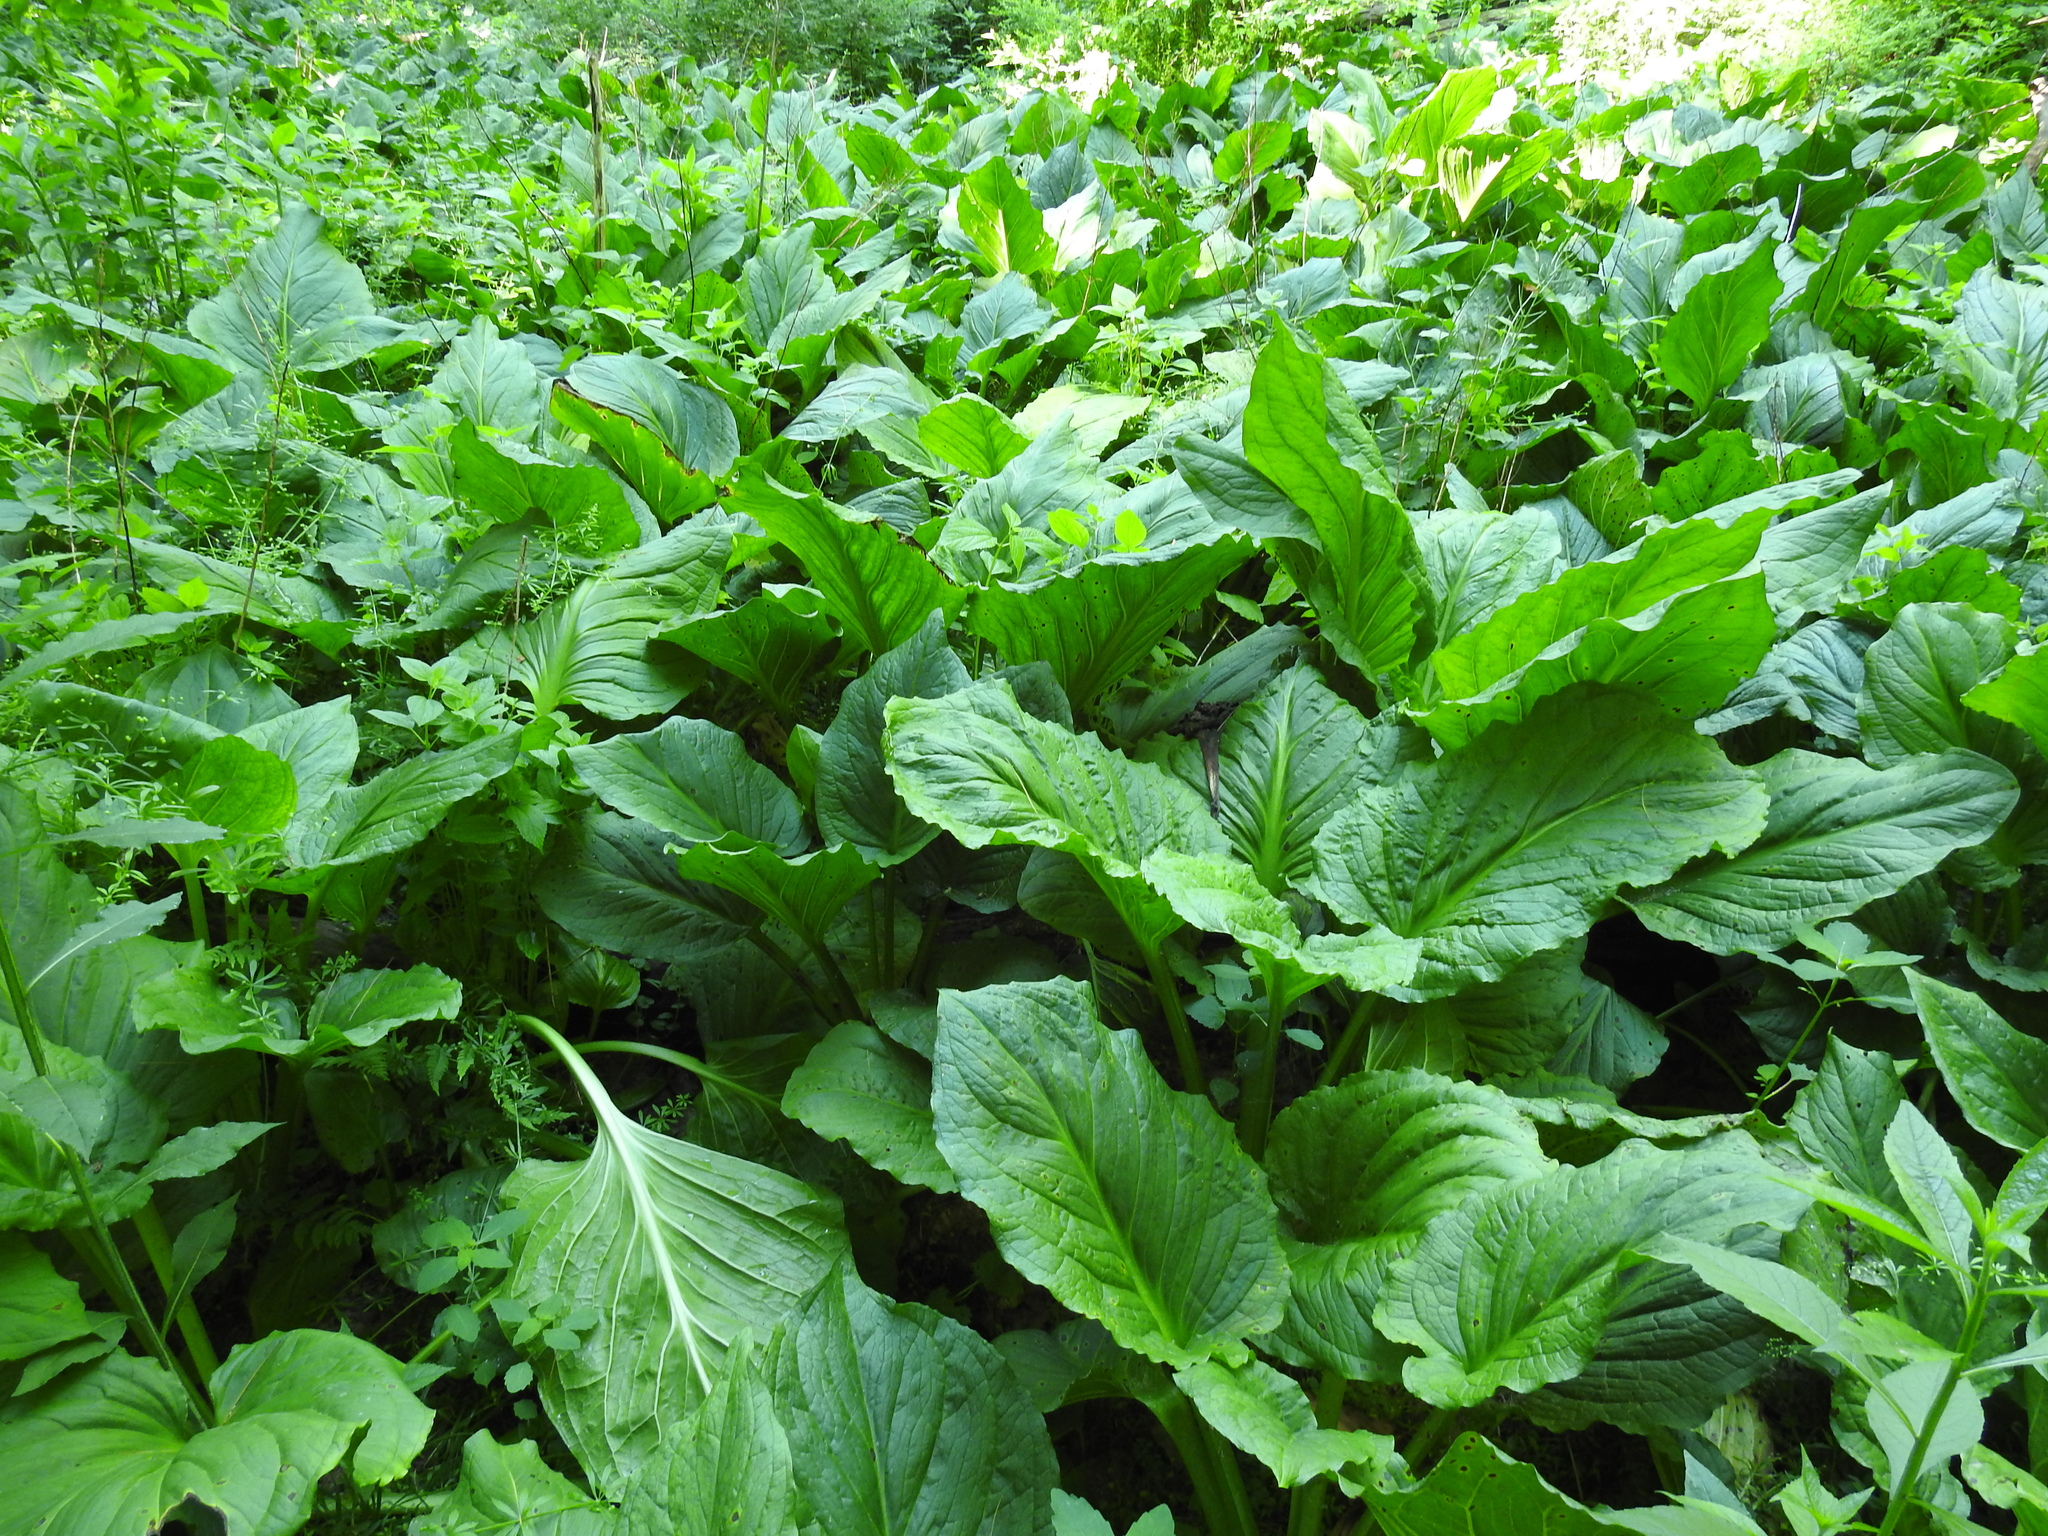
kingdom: Plantae
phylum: Tracheophyta
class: Liliopsida
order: Alismatales
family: Araceae
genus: Symplocarpus
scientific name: Symplocarpus foetidus
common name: Eastern skunk cabbage
